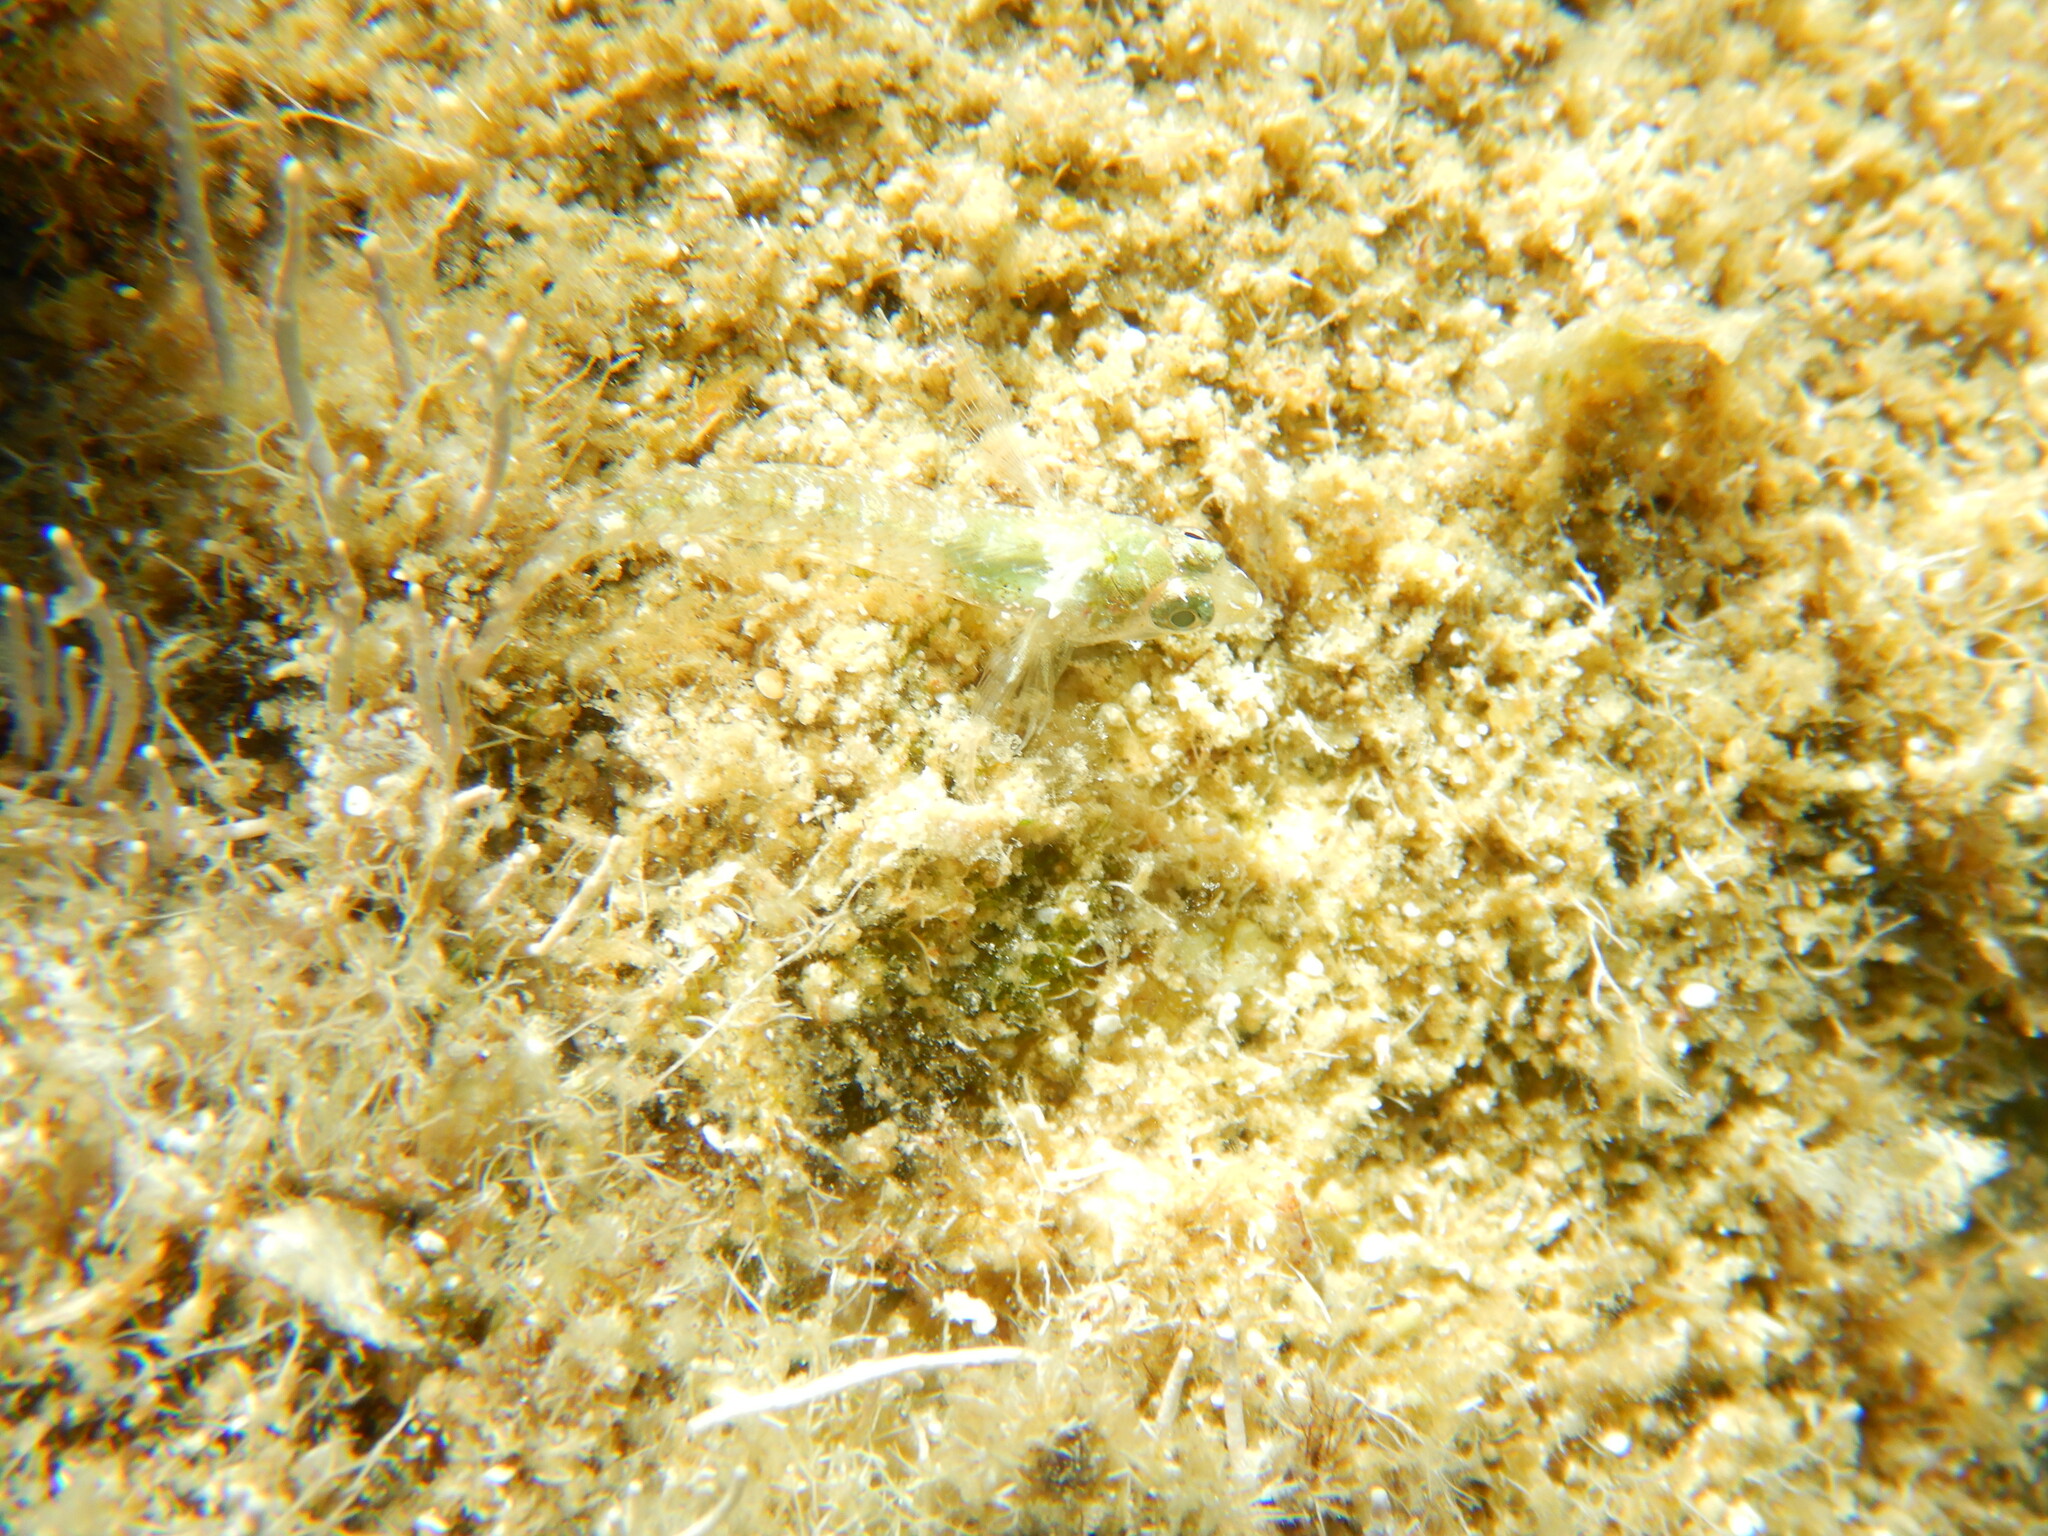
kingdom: Animalia
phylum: Chordata
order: Perciformes
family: Tripterygiidae
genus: Tripterygion
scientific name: Tripterygion tripteronotum
